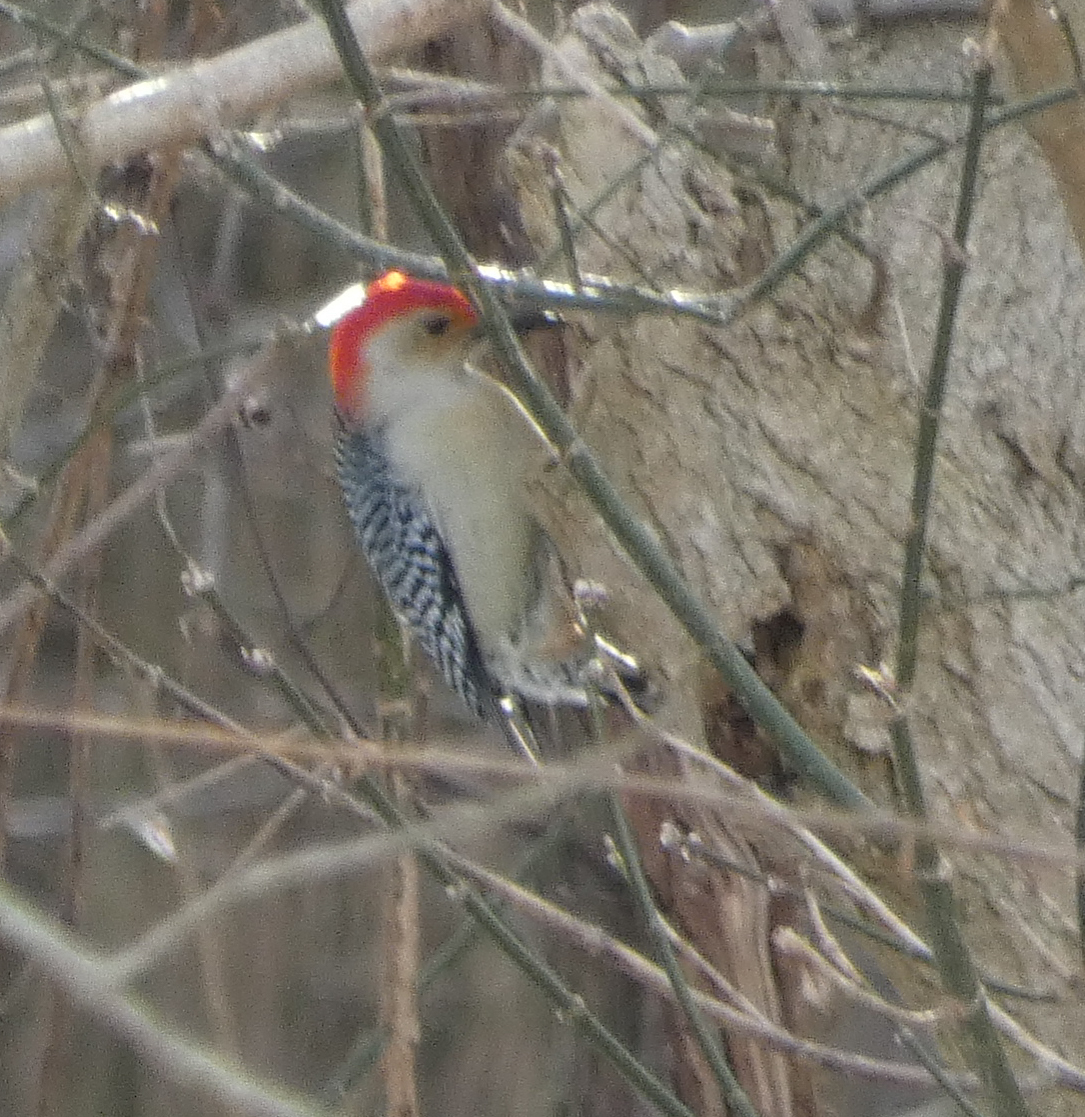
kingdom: Animalia
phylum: Chordata
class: Aves
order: Piciformes
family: Picidae
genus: Melanerpes
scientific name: Melanerpes carolinus
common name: Red-bellied woodpecker
